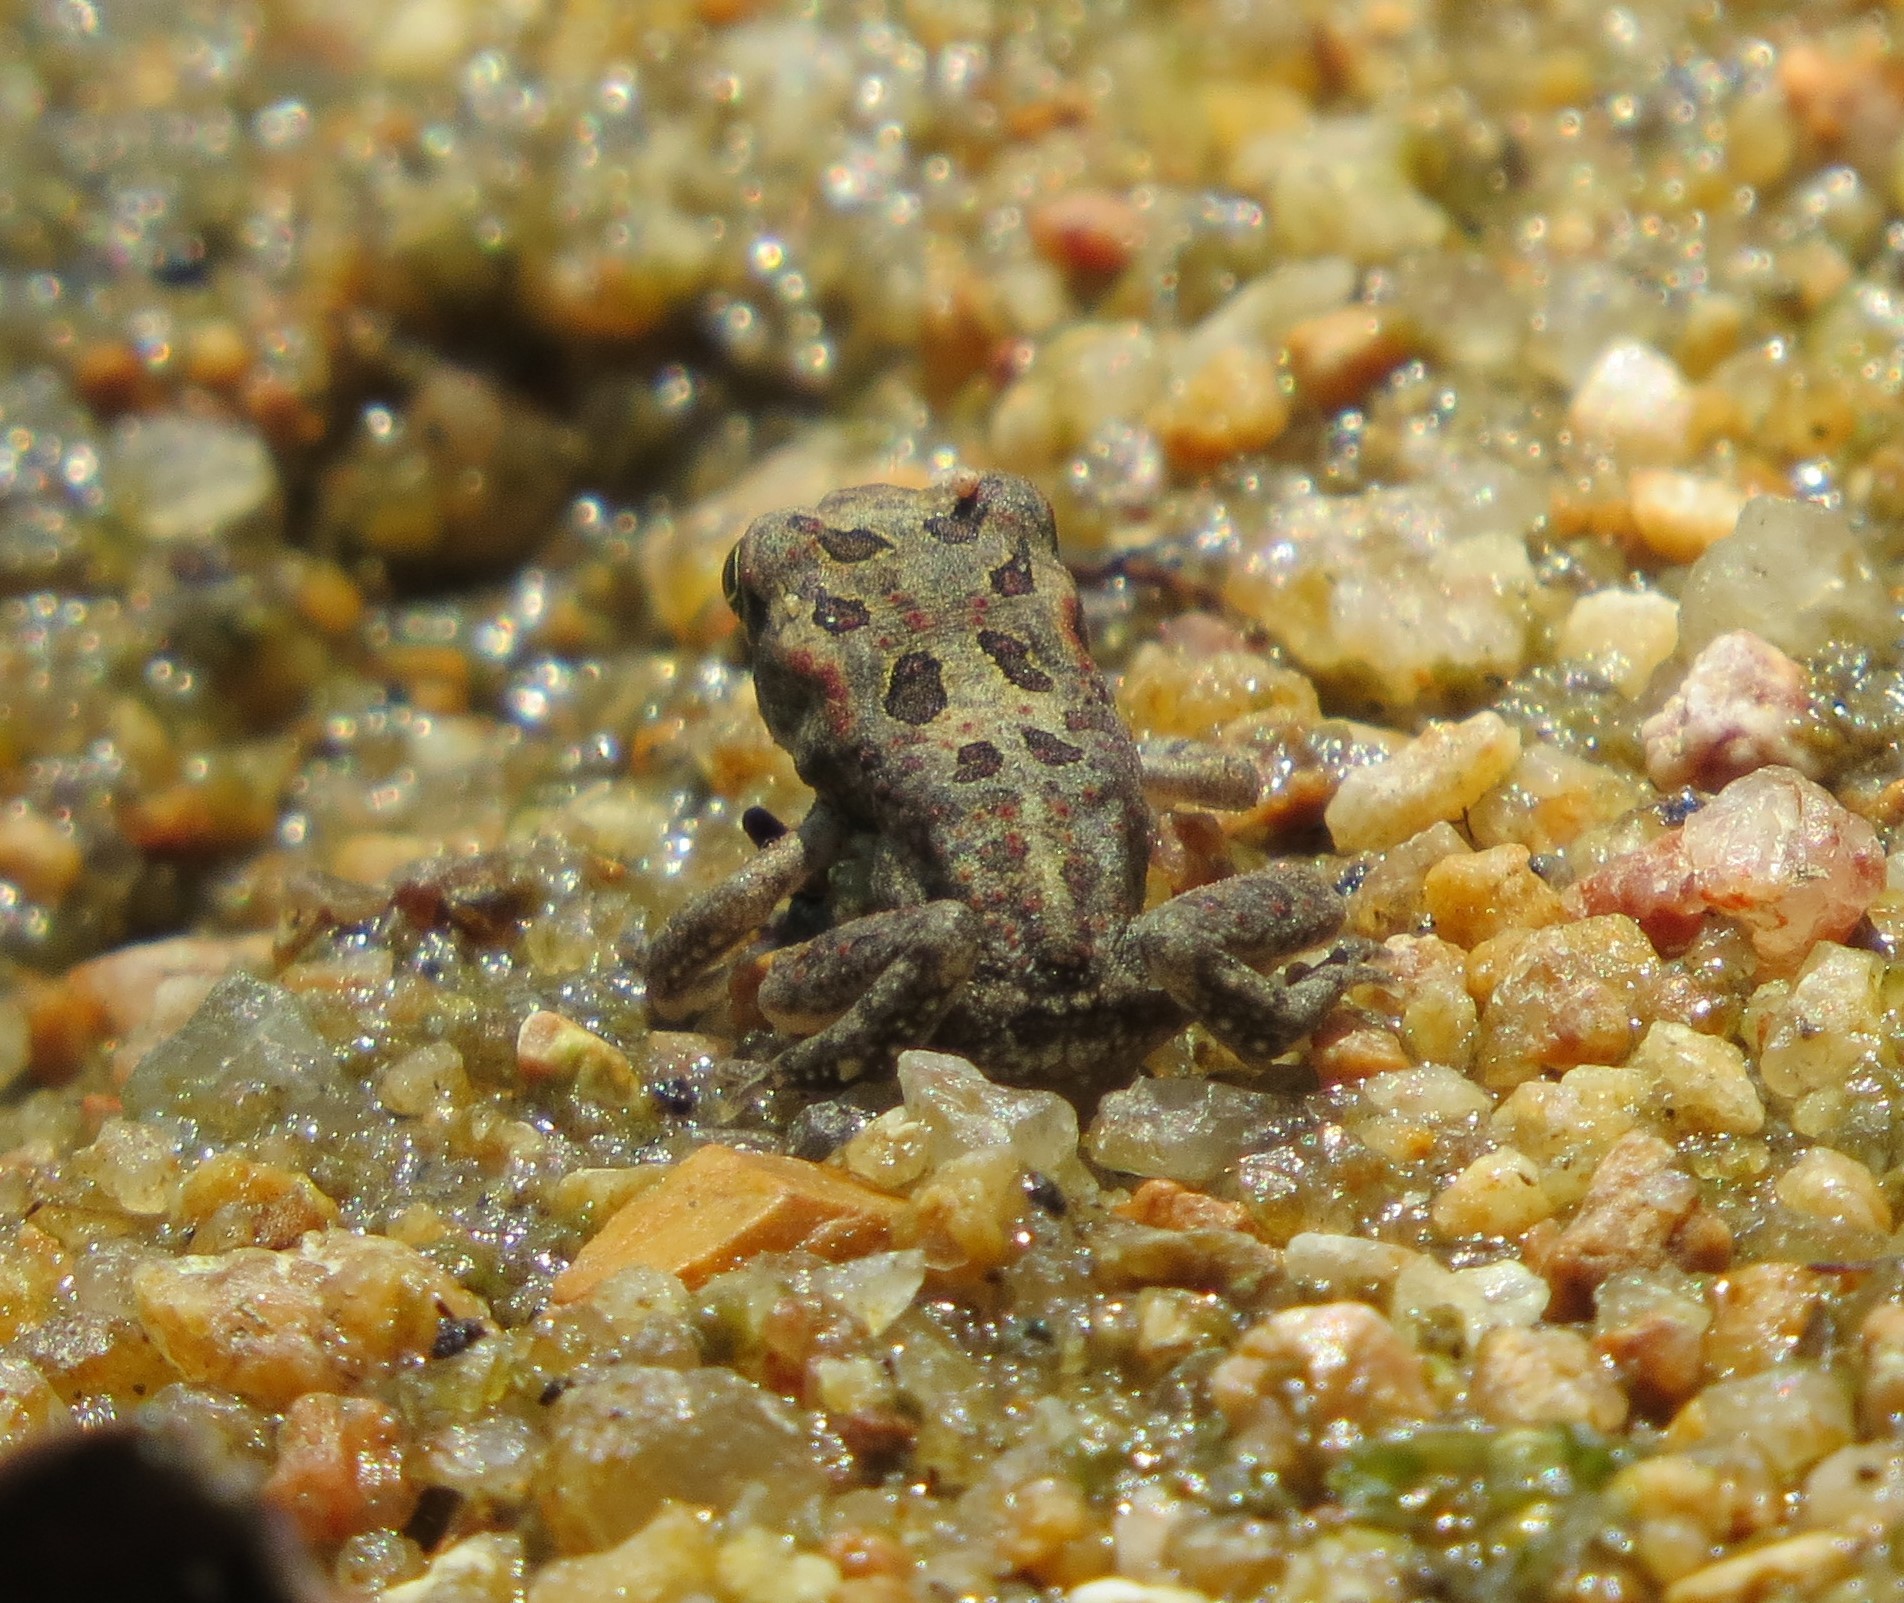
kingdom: Animalia
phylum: Chordata
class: Amphibia
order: Anura
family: Bufonidae
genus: Sclerophrys
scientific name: Sclerophrys garmani
